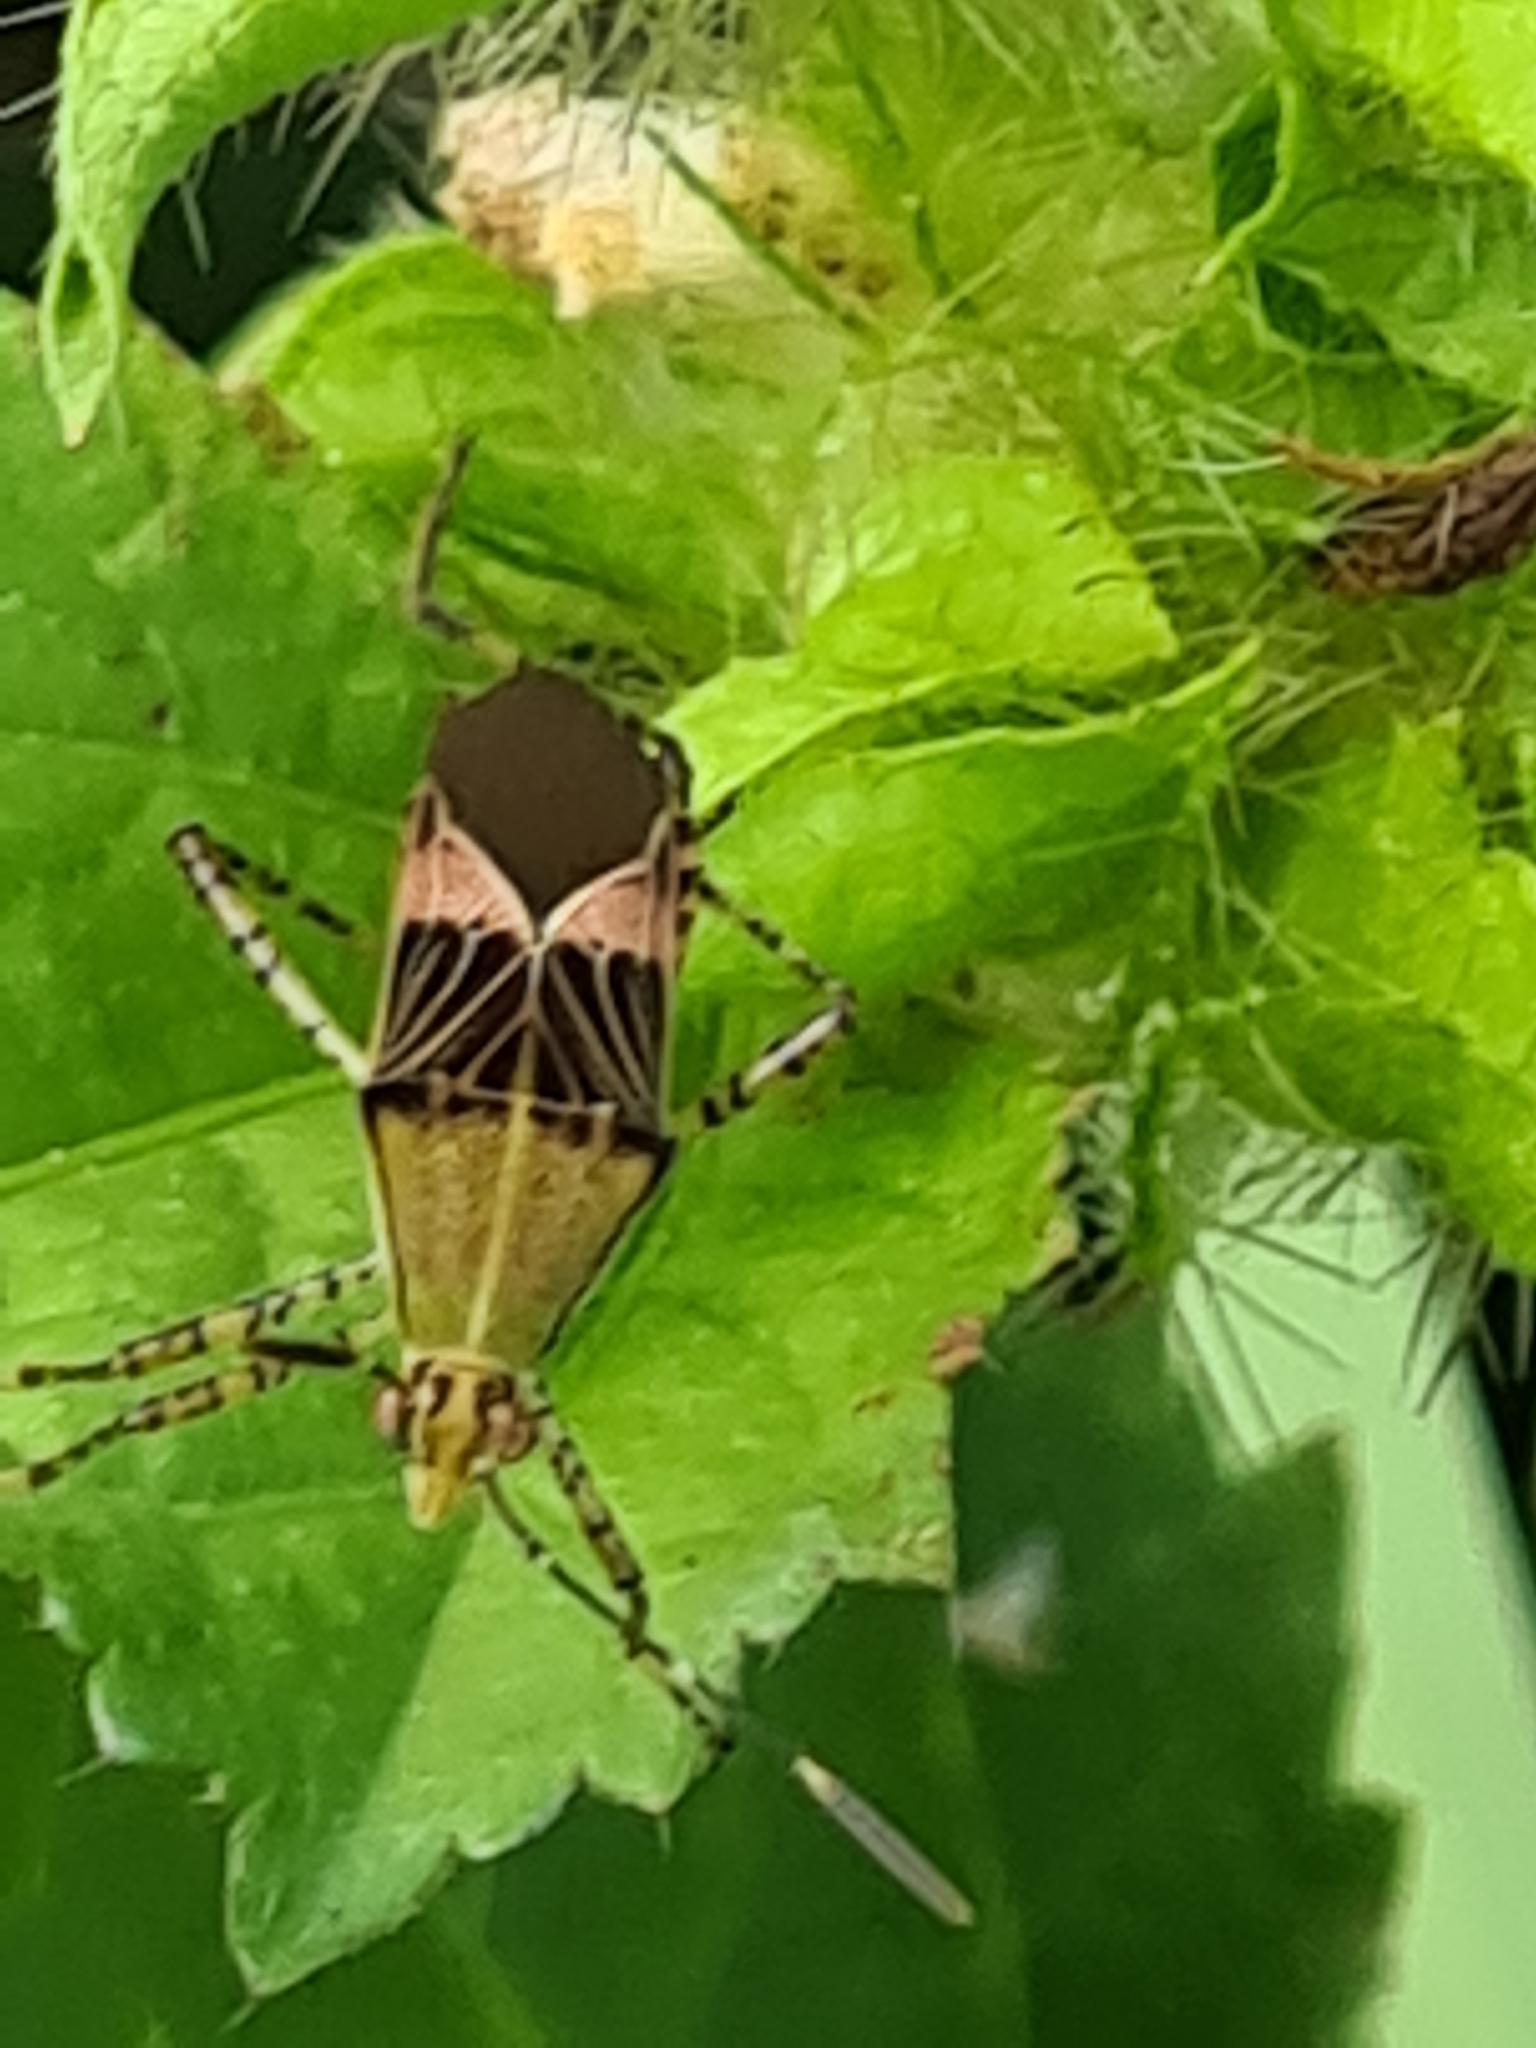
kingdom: Animalia
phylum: Arthropoda
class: Insecta
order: Hemiptera
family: Coreidae
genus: Hypselonotus
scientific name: Hypselonotus fulvus
